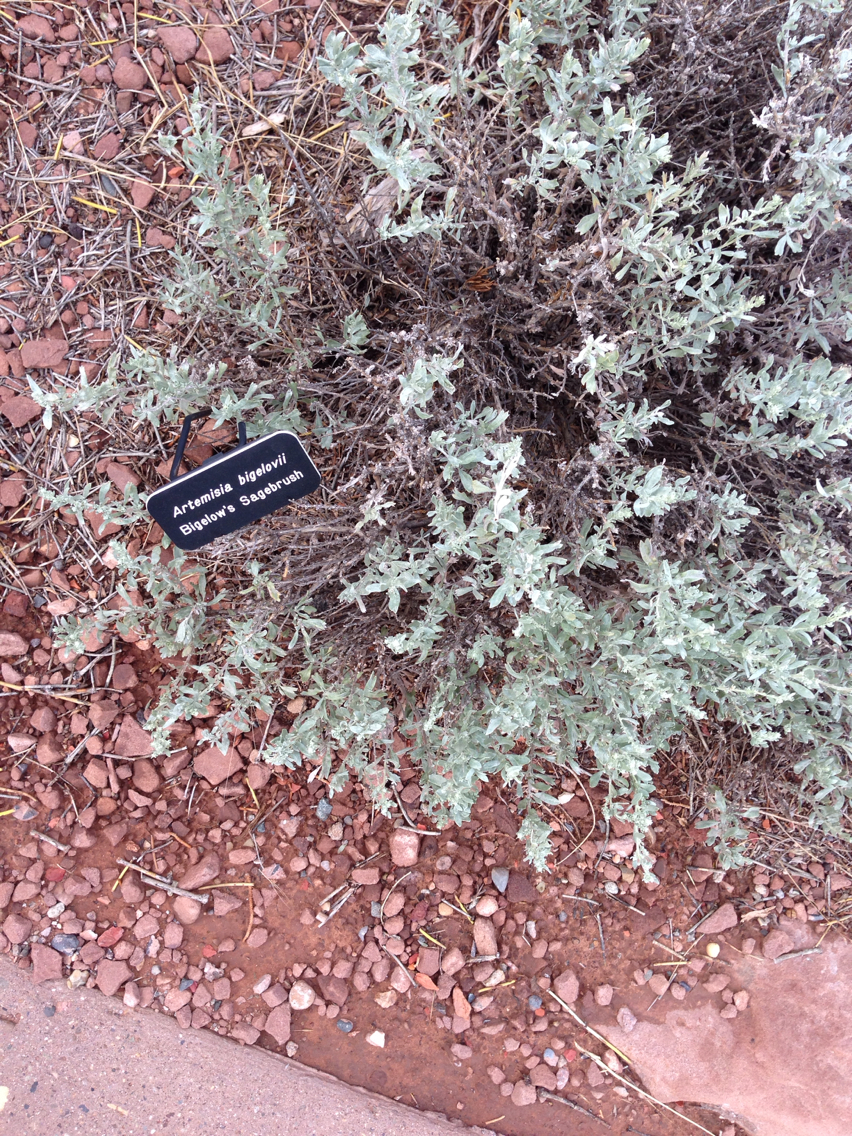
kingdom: Plantae
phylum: Tracheophyta
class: Magnoliopsida
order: Asterales
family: Asteraceae
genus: Artemisia
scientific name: Artemisia bigelovii
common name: Bigelow sagebrush
